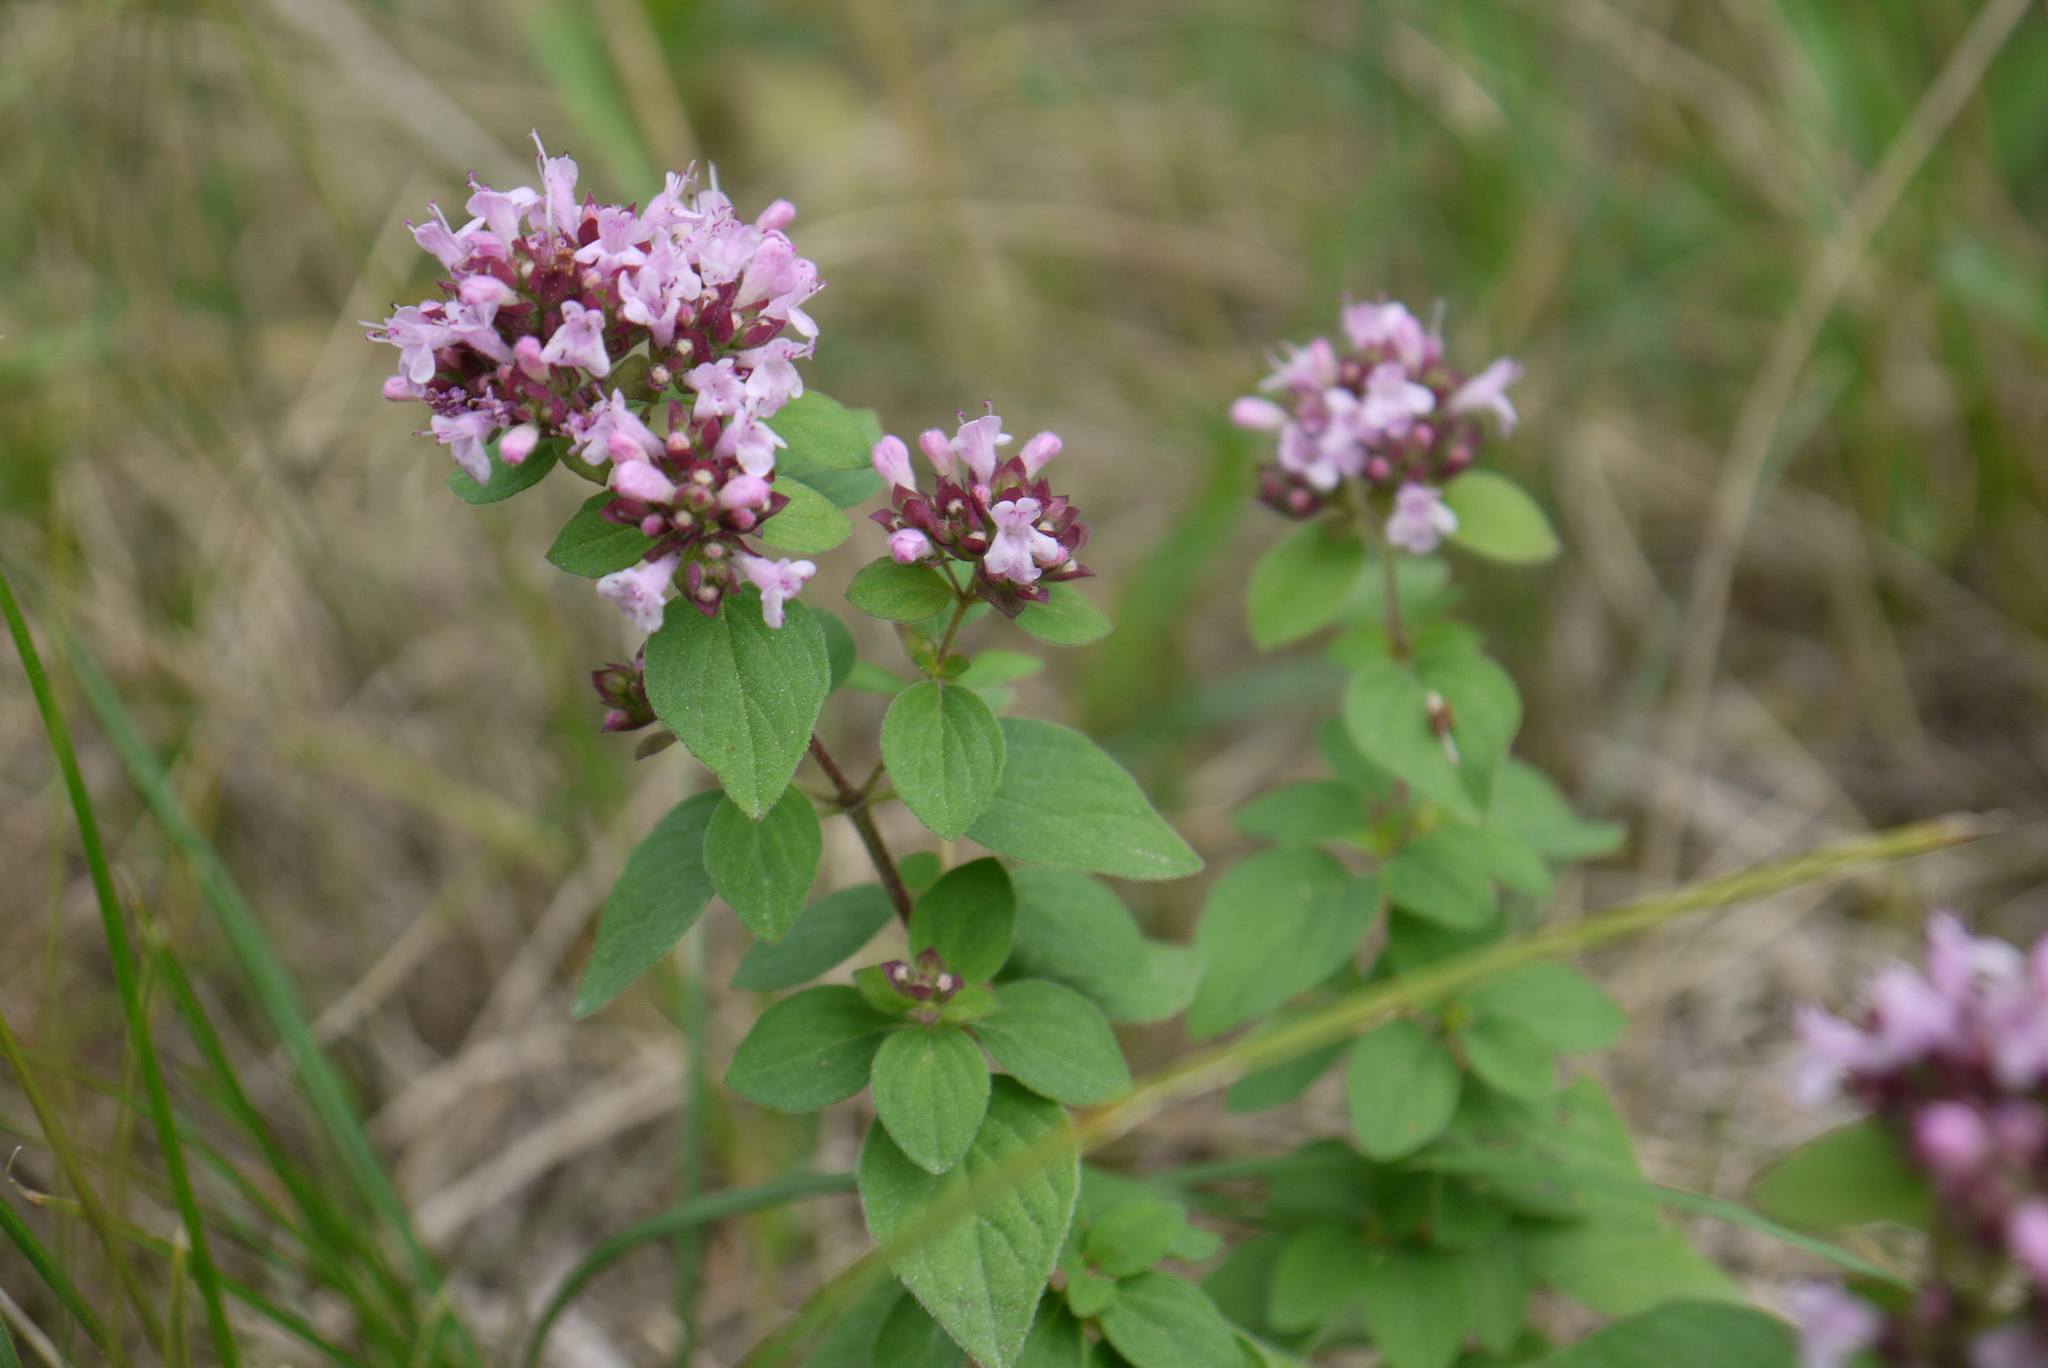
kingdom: Plantae
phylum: Tracheophyta
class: Magnoliopsida
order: Lamiales
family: Lamiaceae
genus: Origanum
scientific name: Origanum vulgare
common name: Wild marjoram
